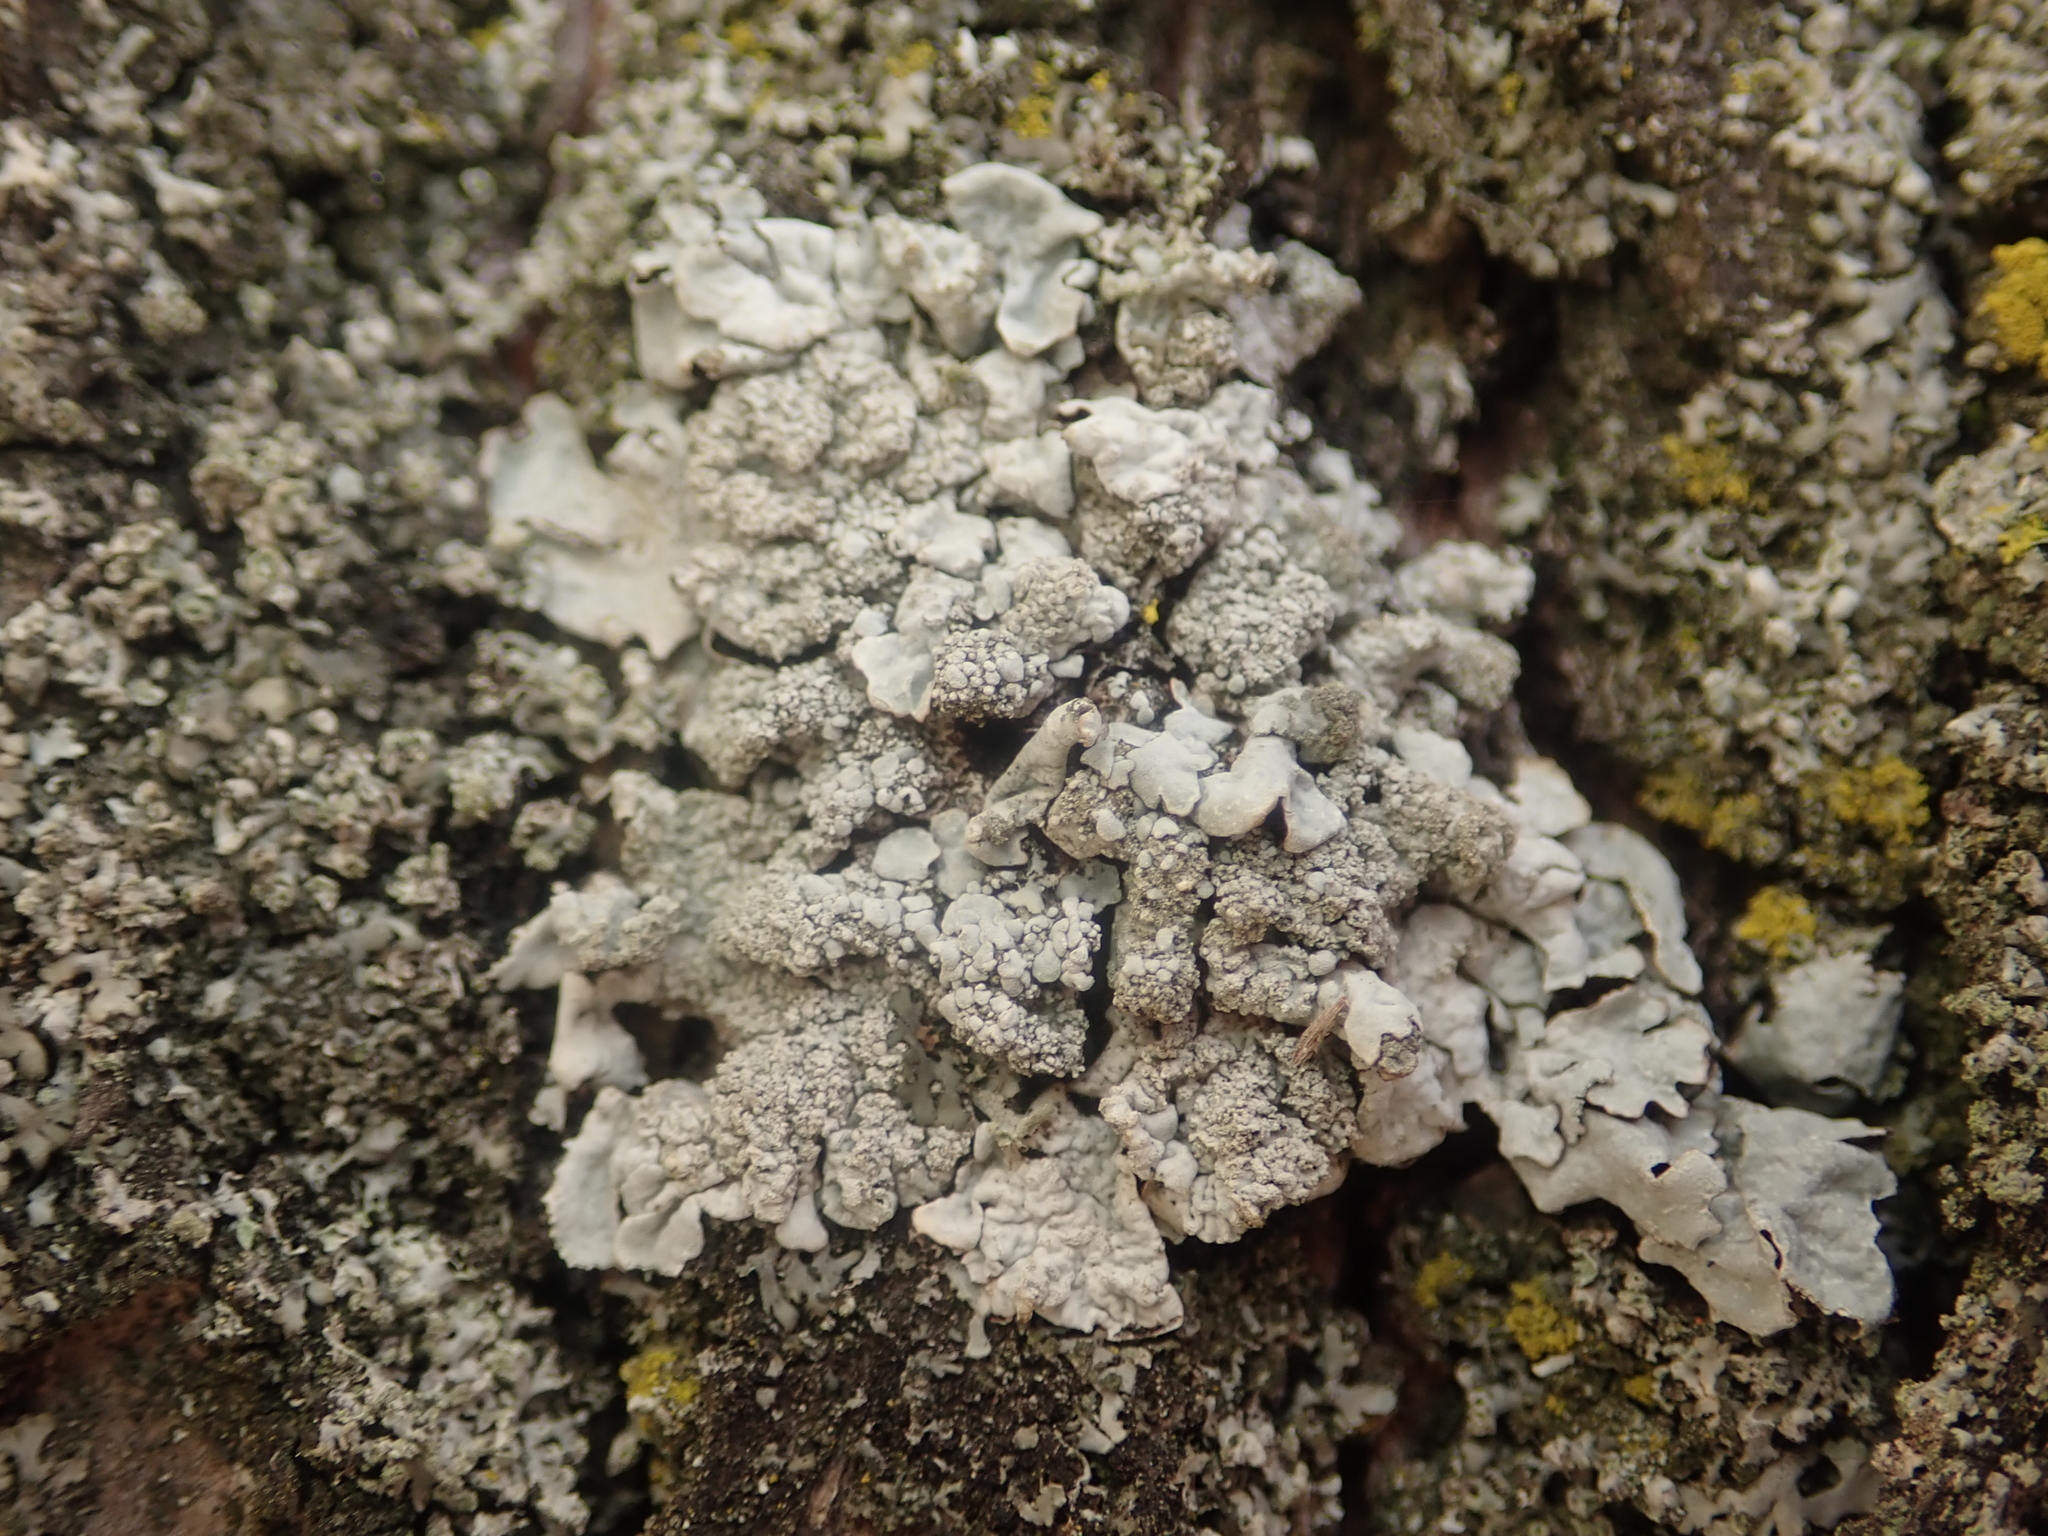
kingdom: Fungi
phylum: Ascomycota
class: Lecanoromycetes
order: Lecanorales
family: Parmeliaceae
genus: Parmelia
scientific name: Parmelia sulcata
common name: Netted shield lichen
